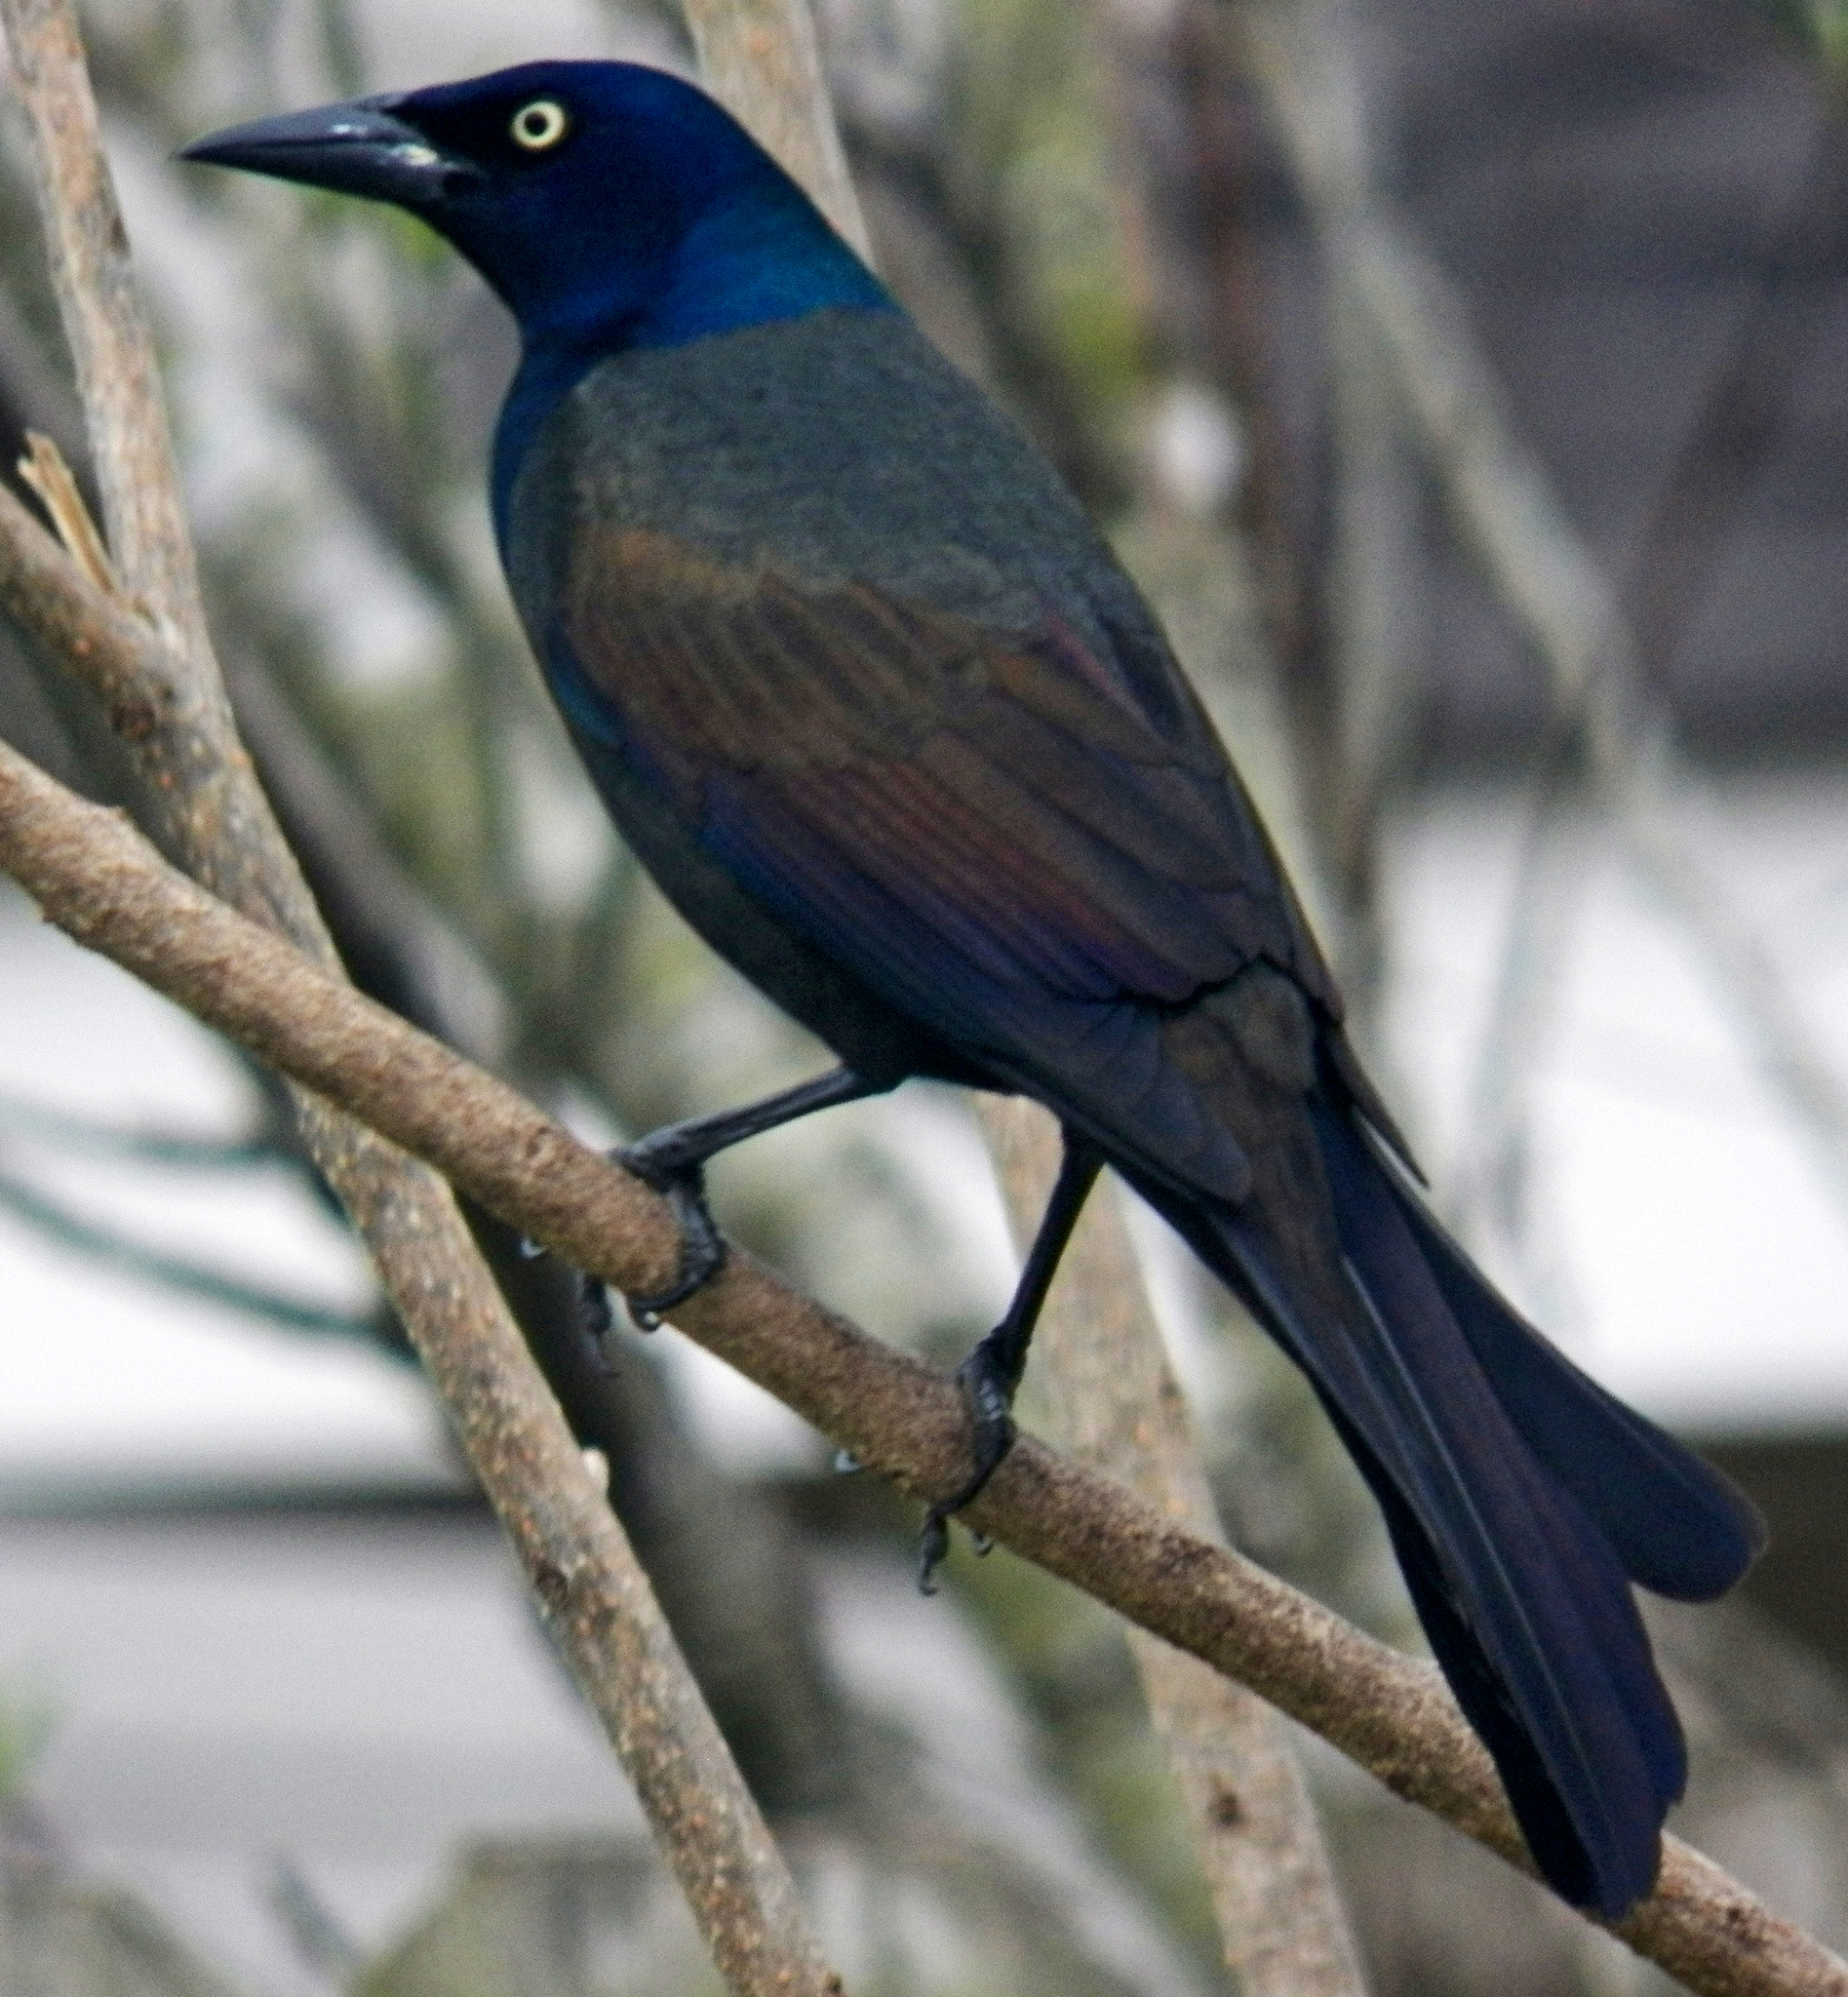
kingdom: Animalia
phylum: Chordata
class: Aves
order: Passeriformes
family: Icteridae
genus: Quiscalus
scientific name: Quiscalus quiscula
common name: Common grackle
